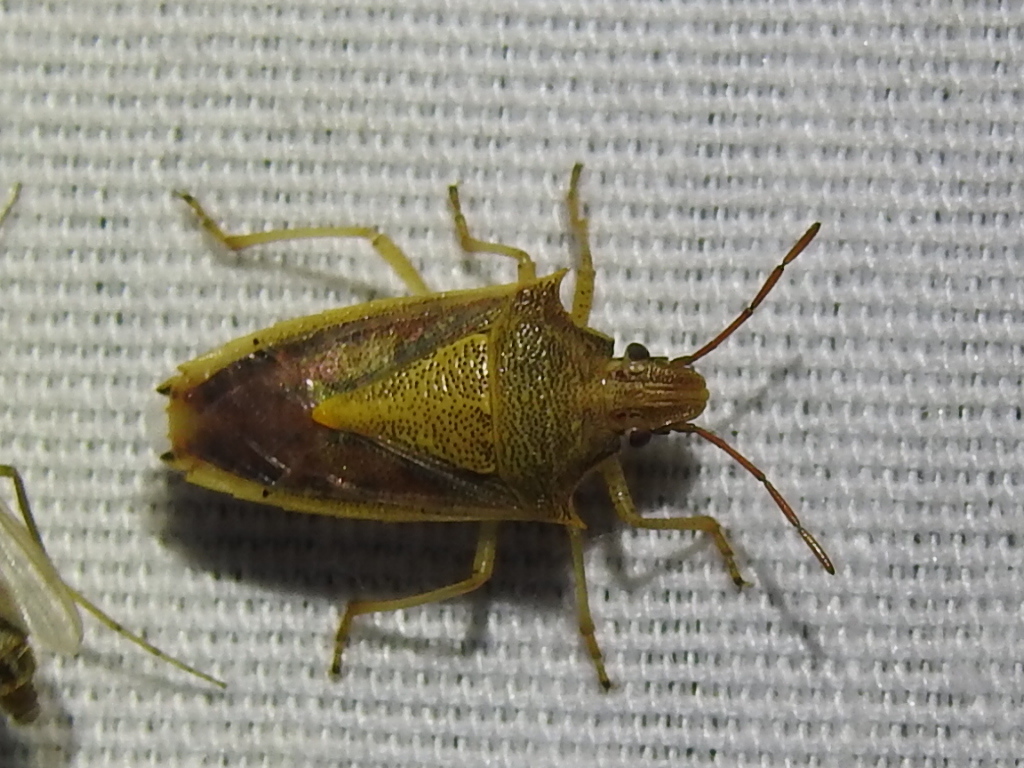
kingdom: Animalia
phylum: Arthropoda
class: Insecta
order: Hemiptera
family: Pentatomidae
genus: Oebalus
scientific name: Oebalus pugnax
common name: Rice stink bug
